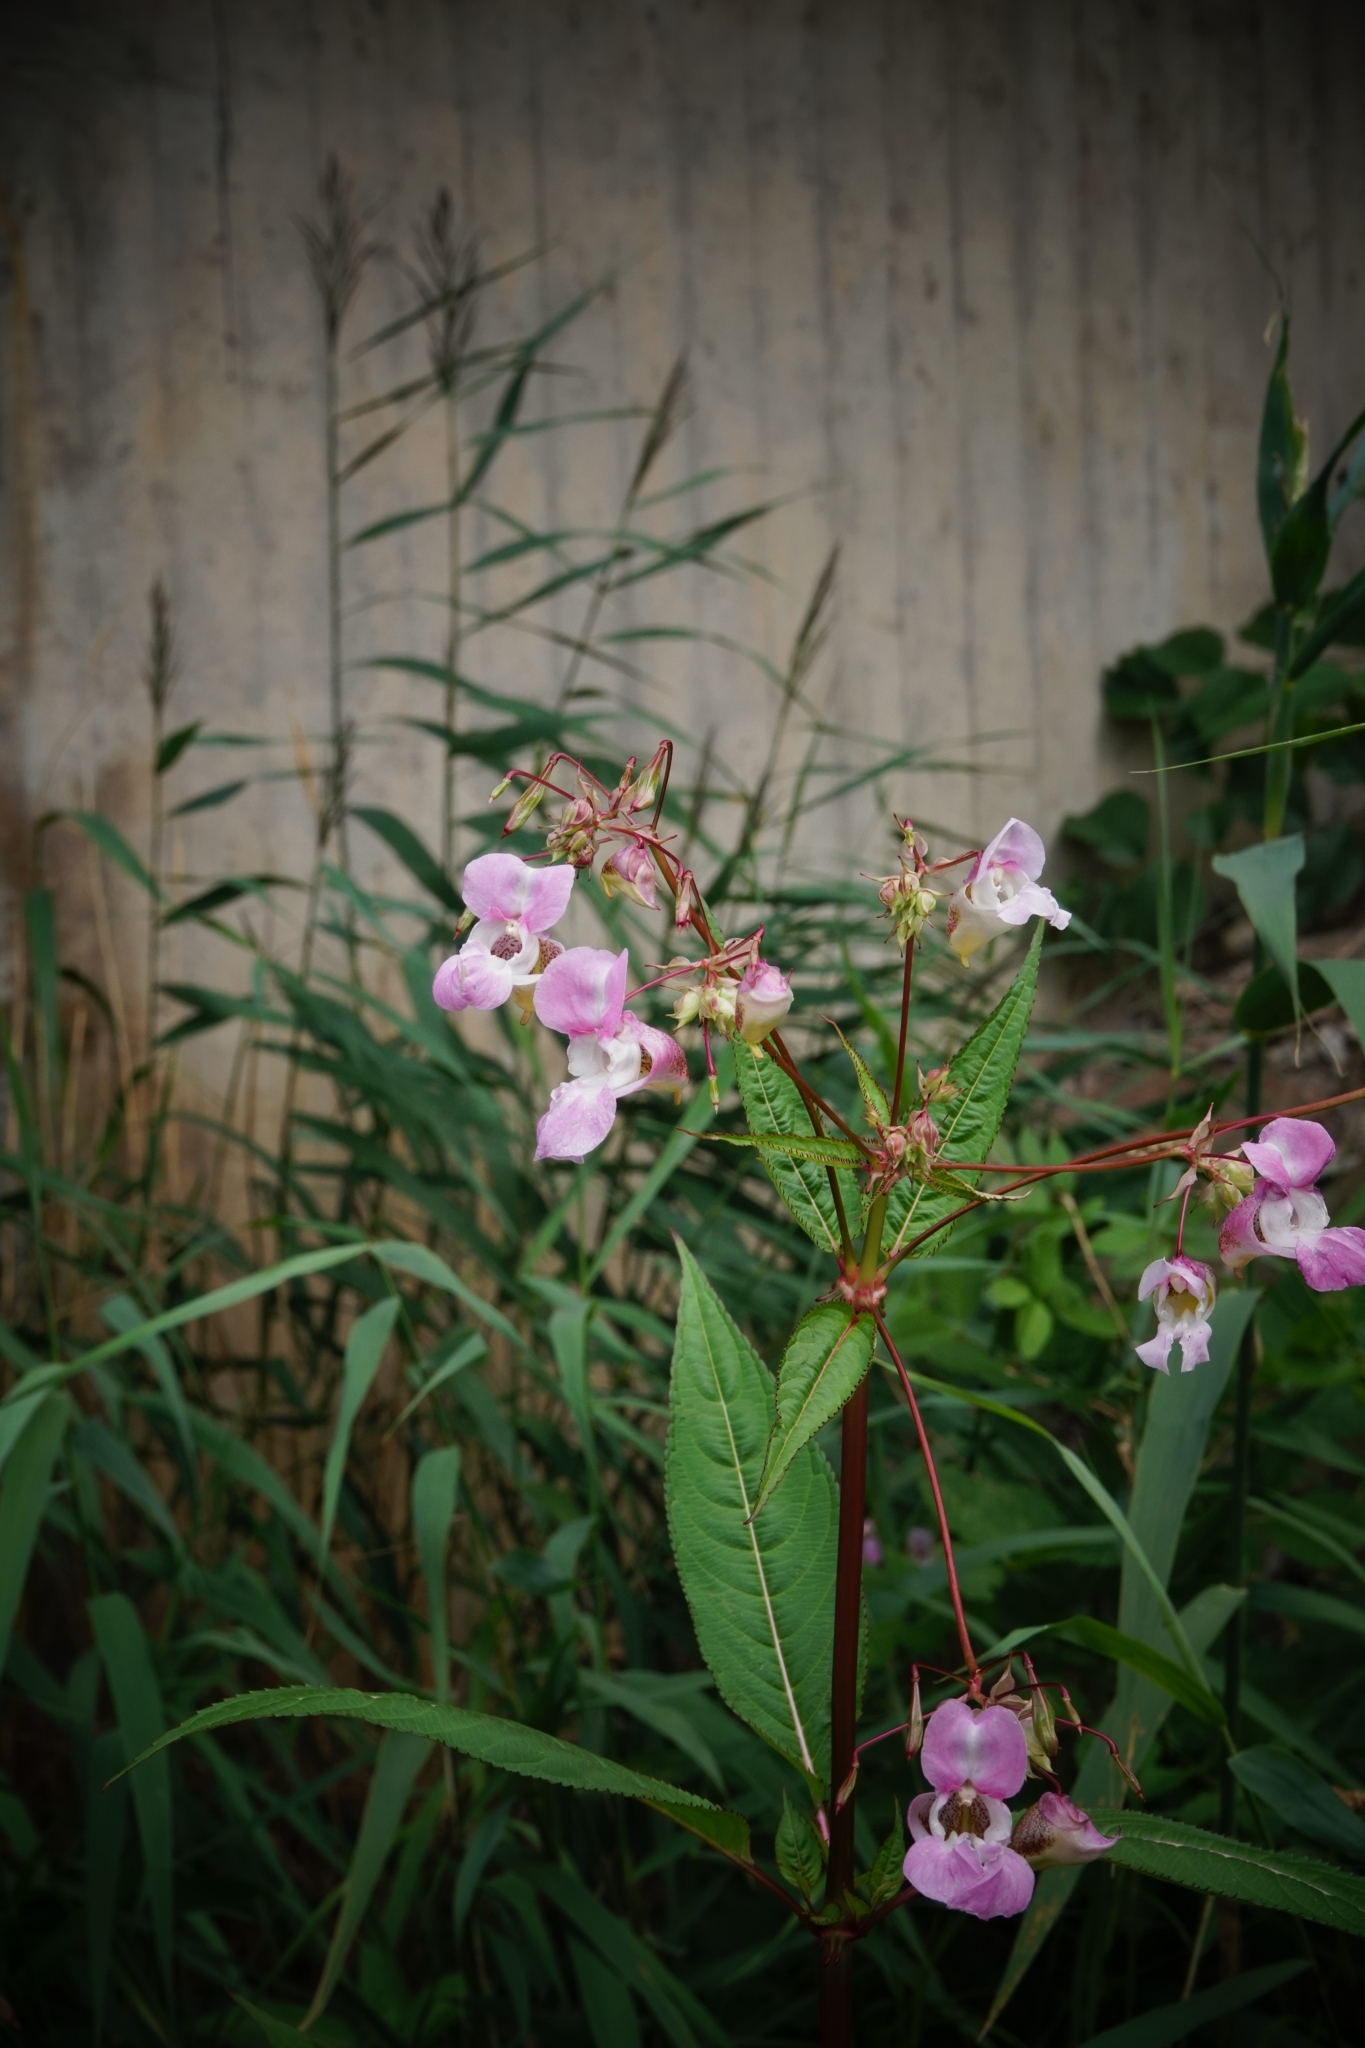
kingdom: Plantae
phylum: Tracheophyta
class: Magnoliopsida
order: Ericales
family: Balsaminaceae
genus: Impatiens
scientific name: Impatiens glandulifera
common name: Himalayan balsam
